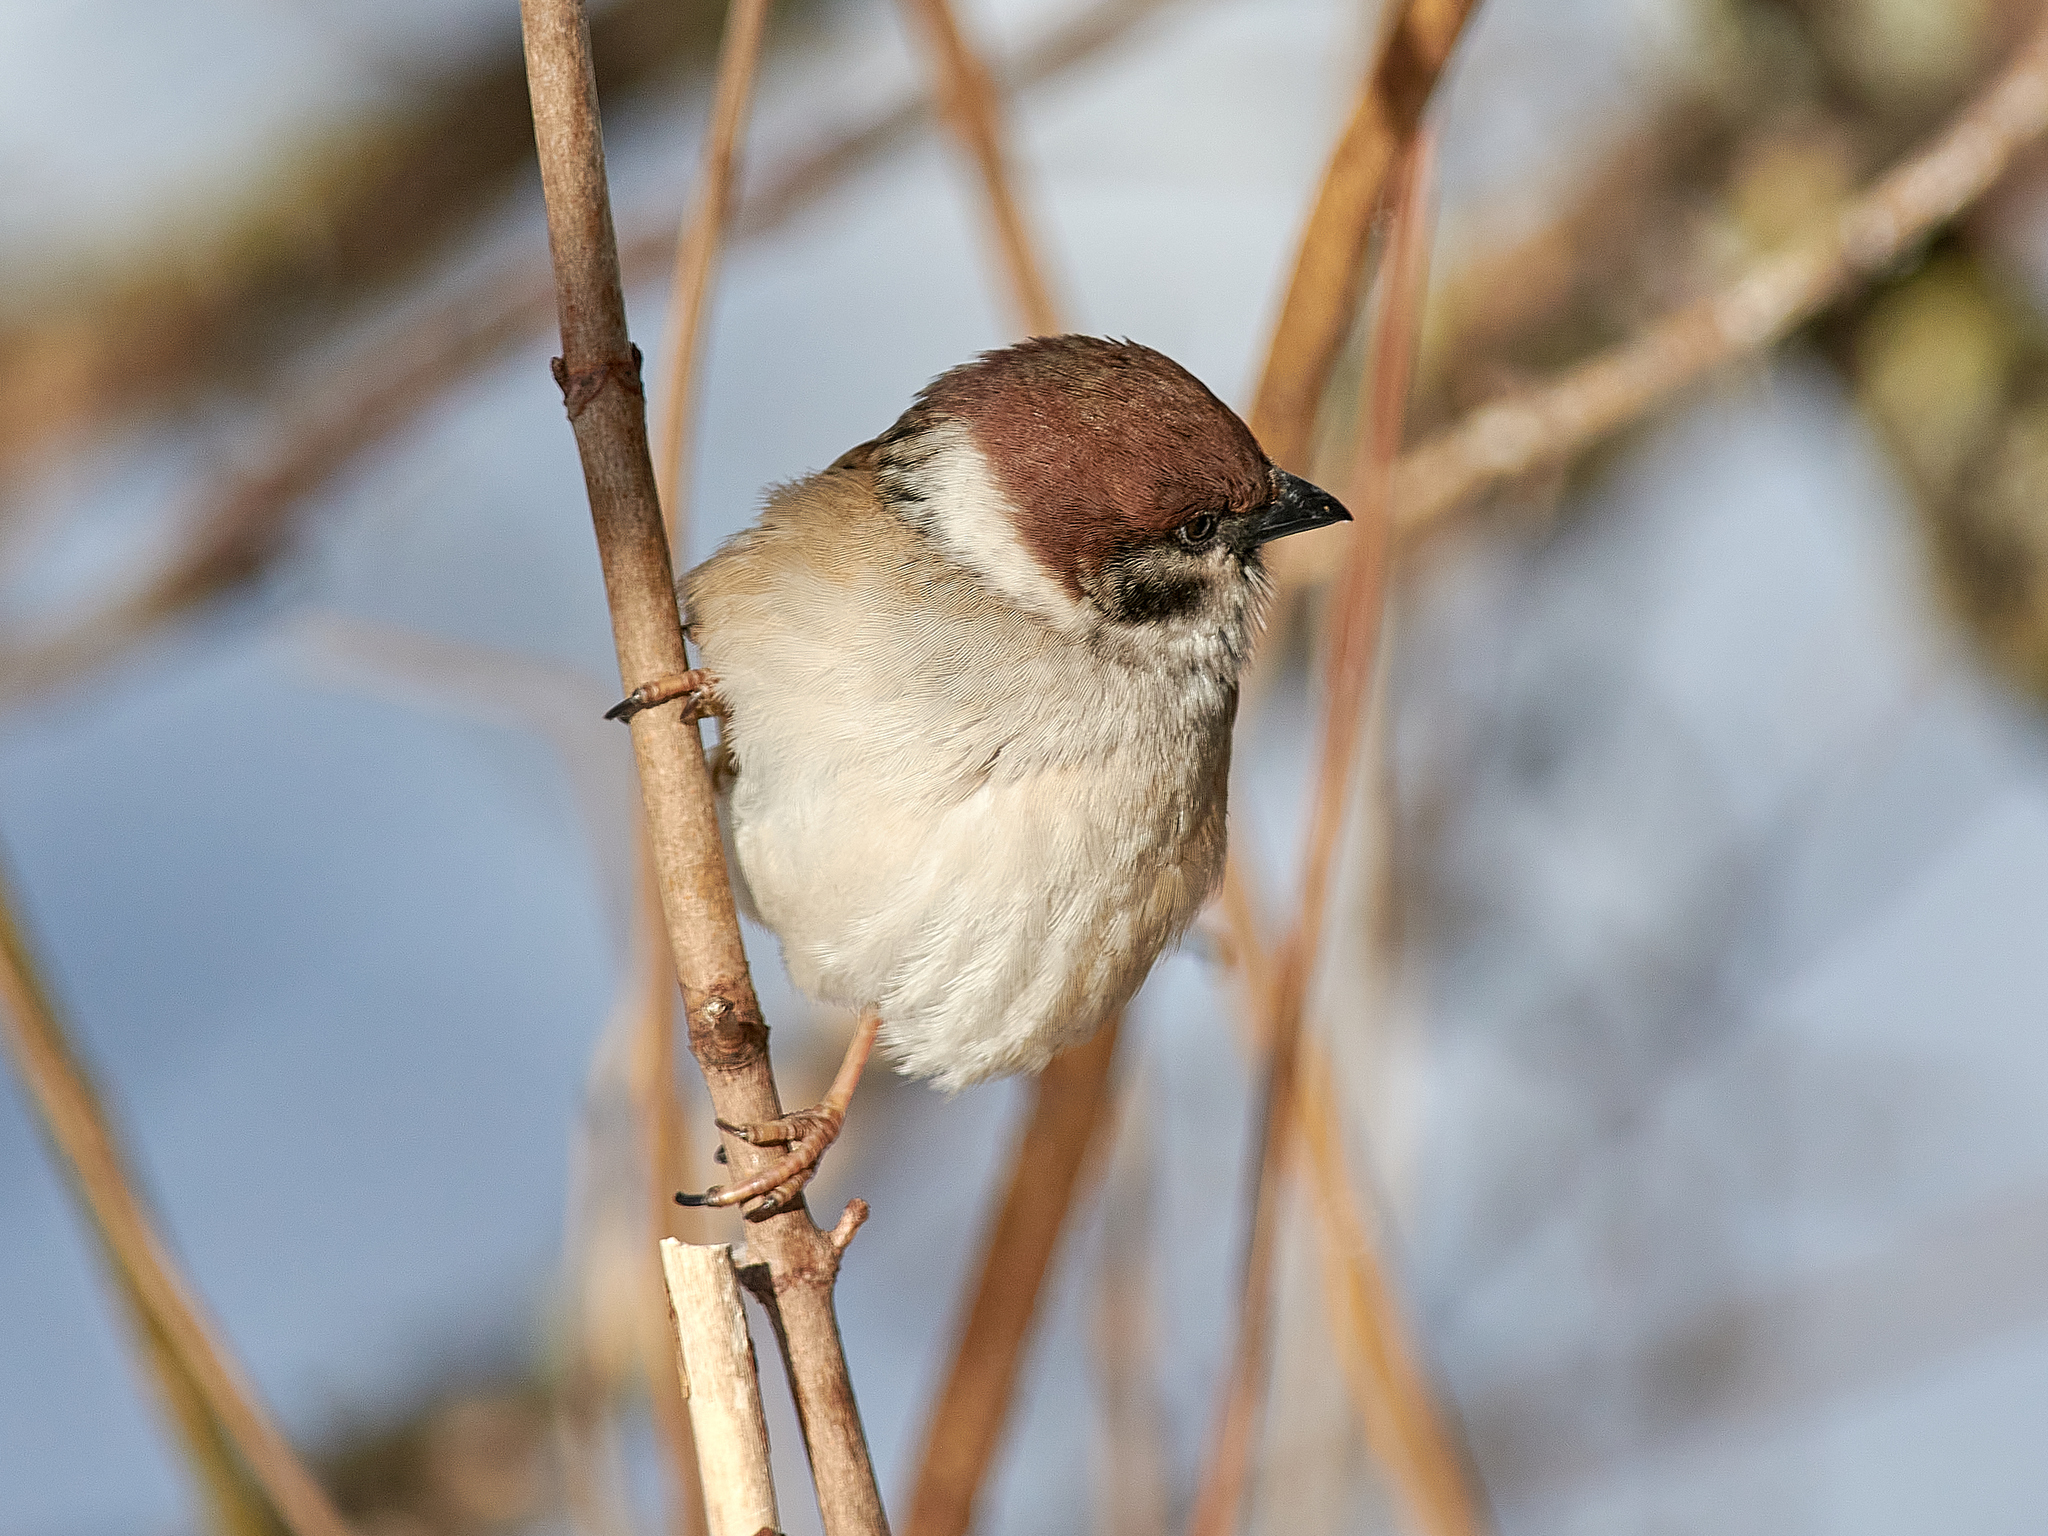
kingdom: Animalia
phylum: Chordata
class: Aves
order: Passeriformes
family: Passeridae
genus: Passer
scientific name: Passer montanus
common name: Eurasian tree sparrow
